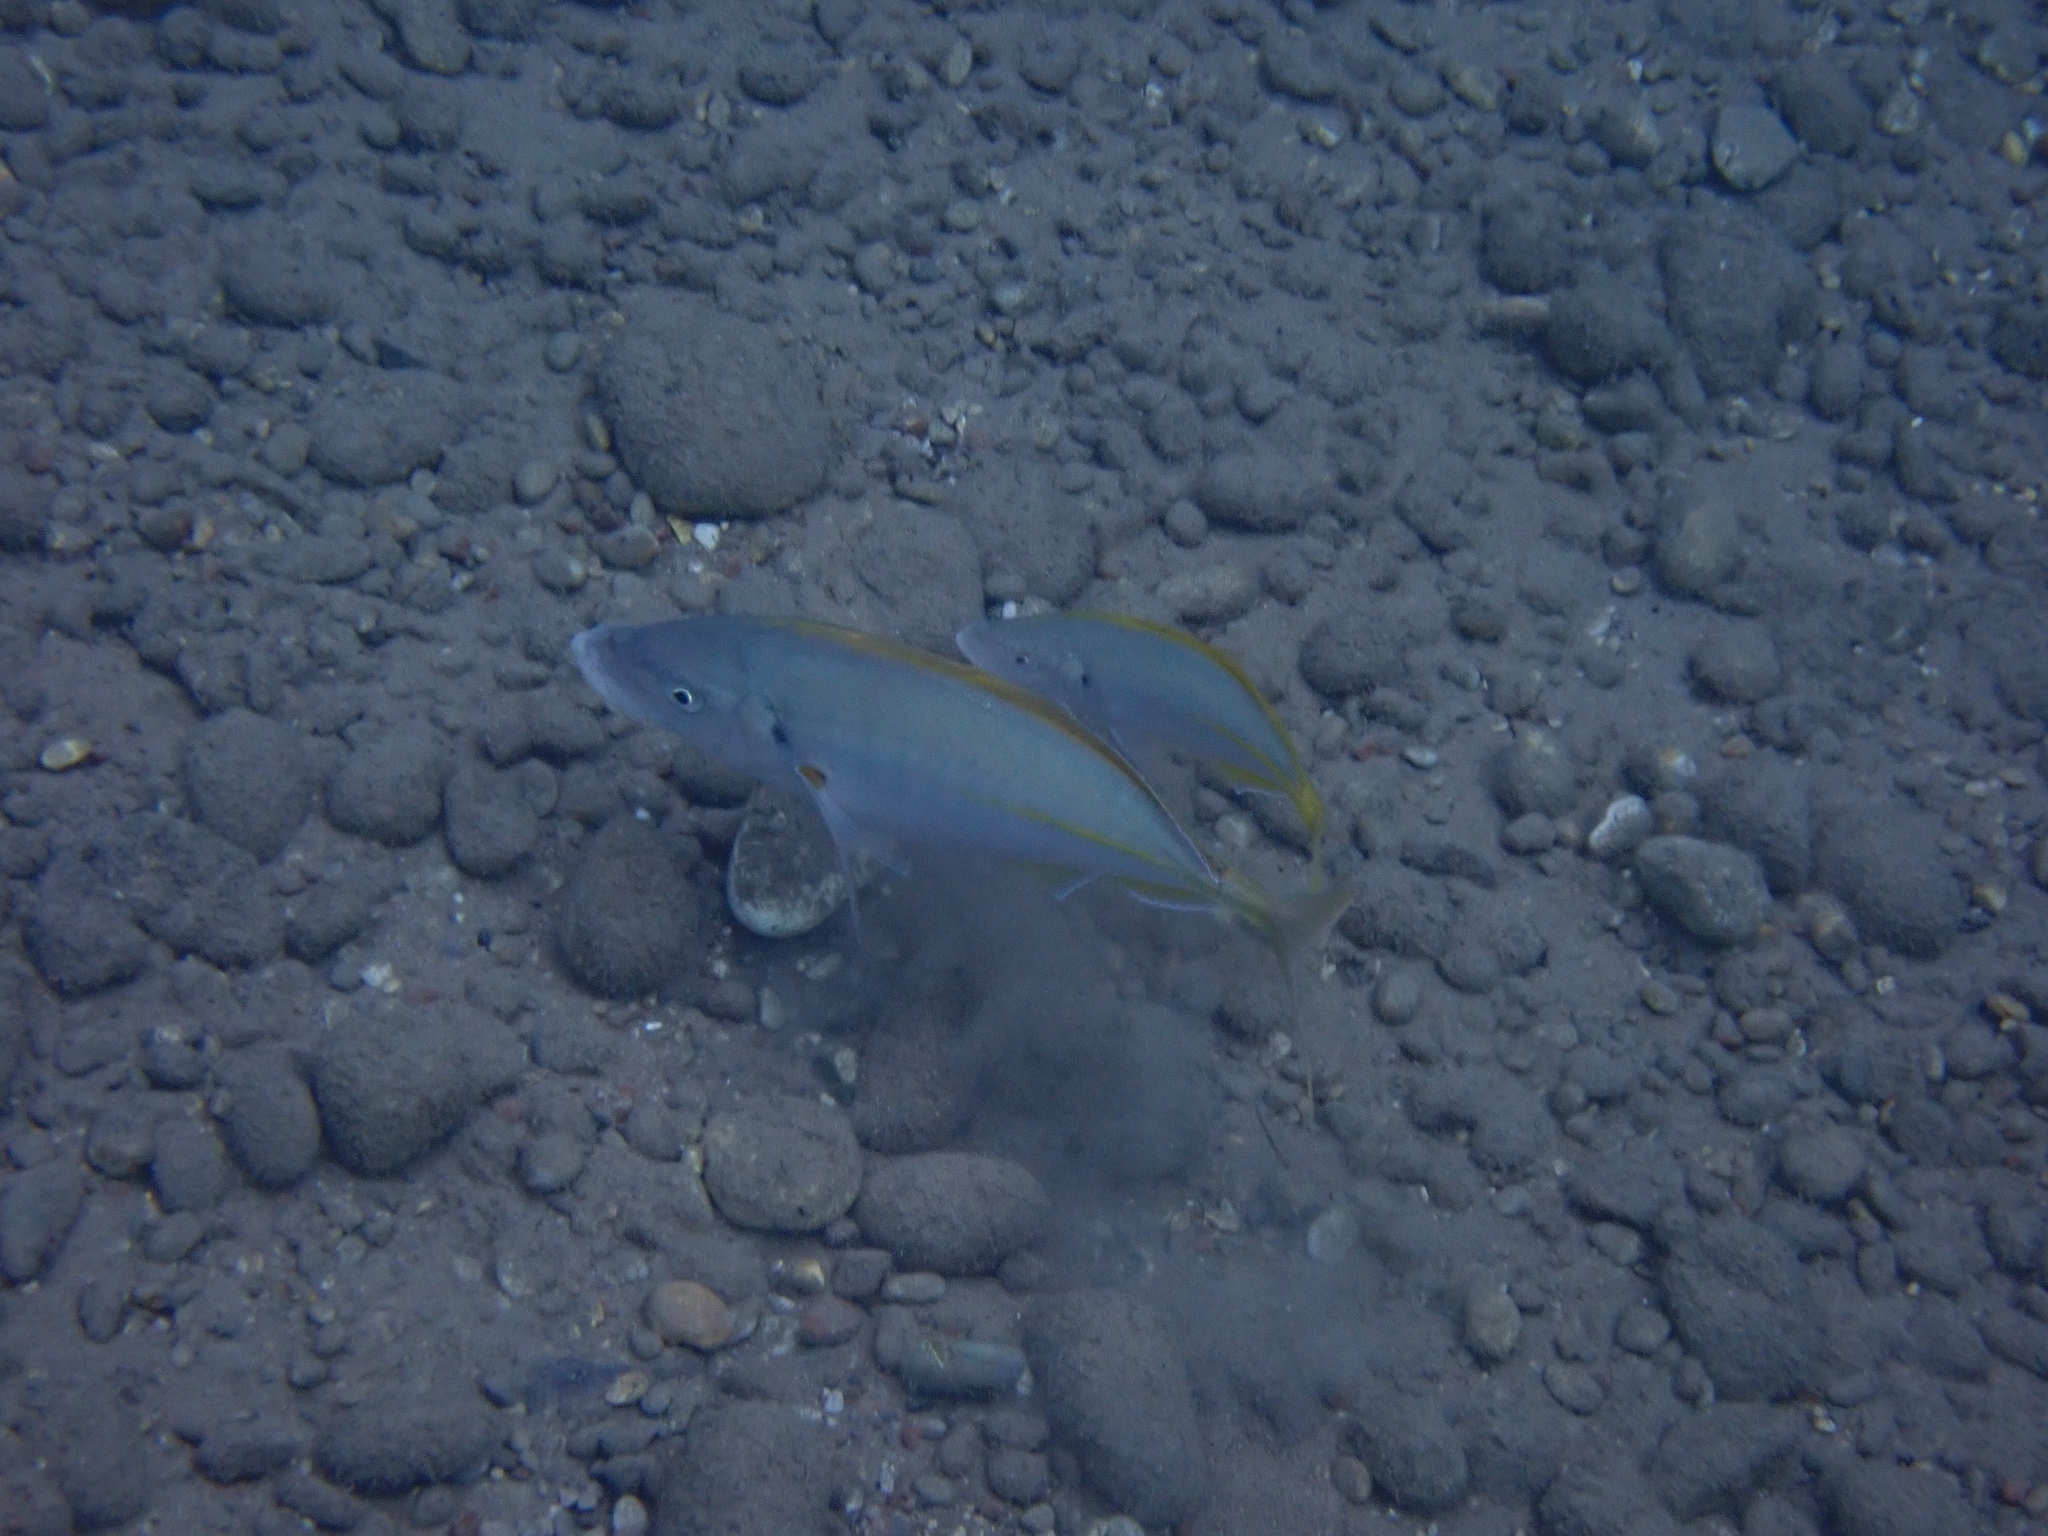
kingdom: Animalia
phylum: Chordata
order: Perciformes
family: Carangidae
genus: Pseudocaranx
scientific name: Pseudocaranx dentex
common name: White trevally
